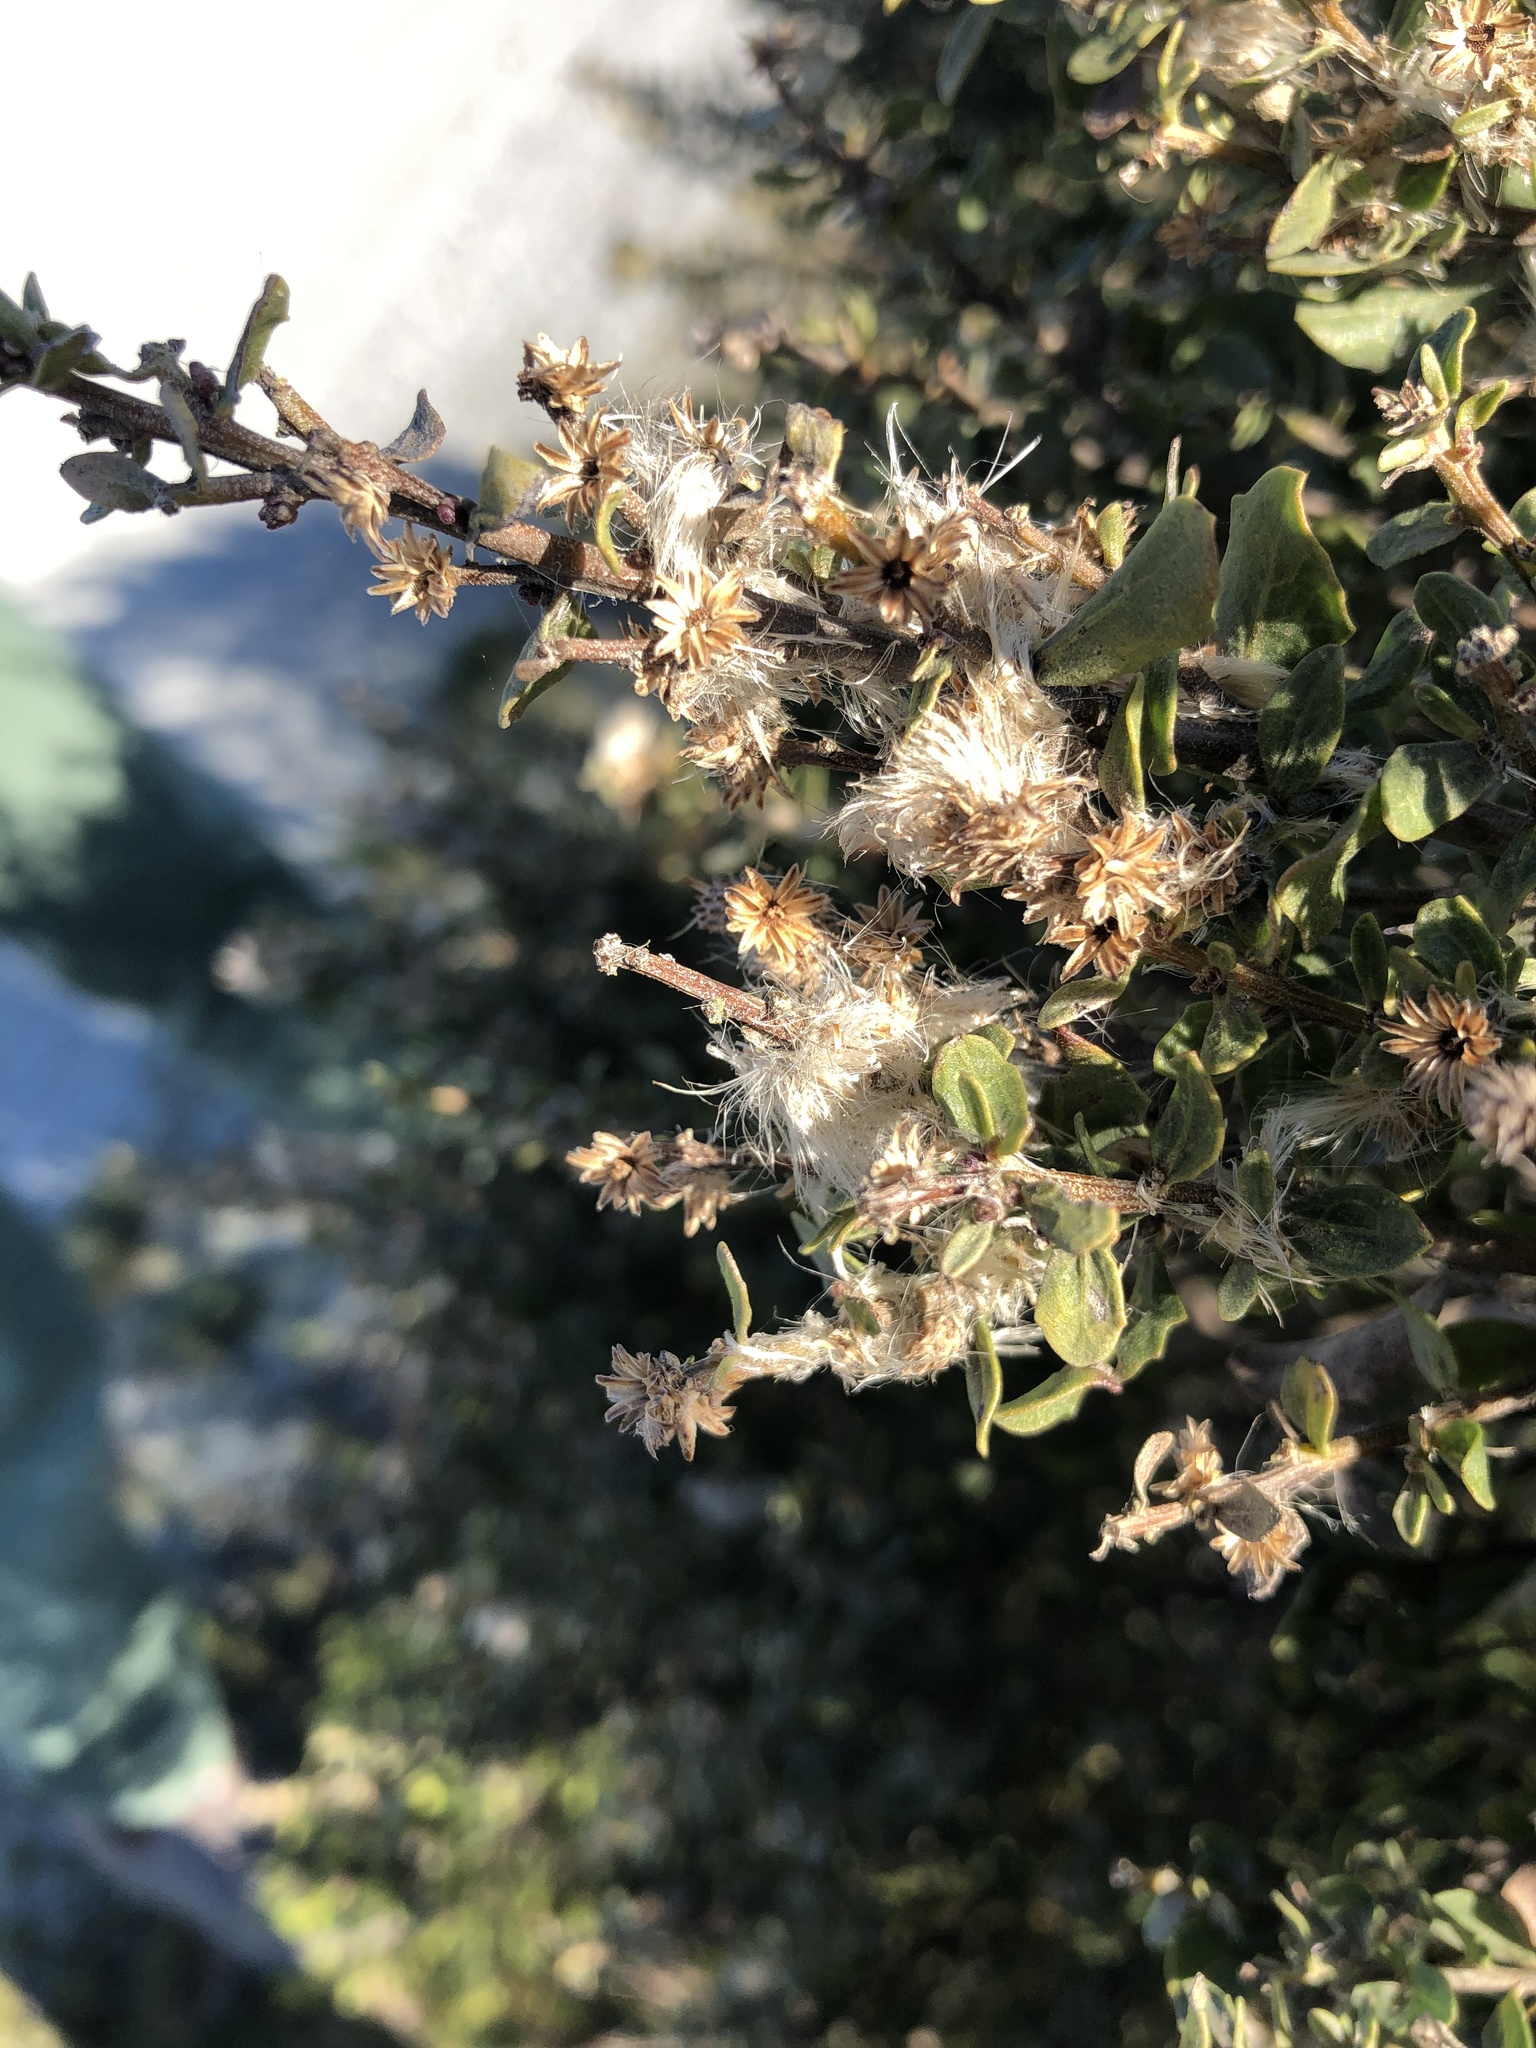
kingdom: Plantae
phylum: Tracheophyta
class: Magnoliopsida
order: Asterales
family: Asteraceae
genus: Baccharis
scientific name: Baccharis pilularis
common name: Coyotebrush
